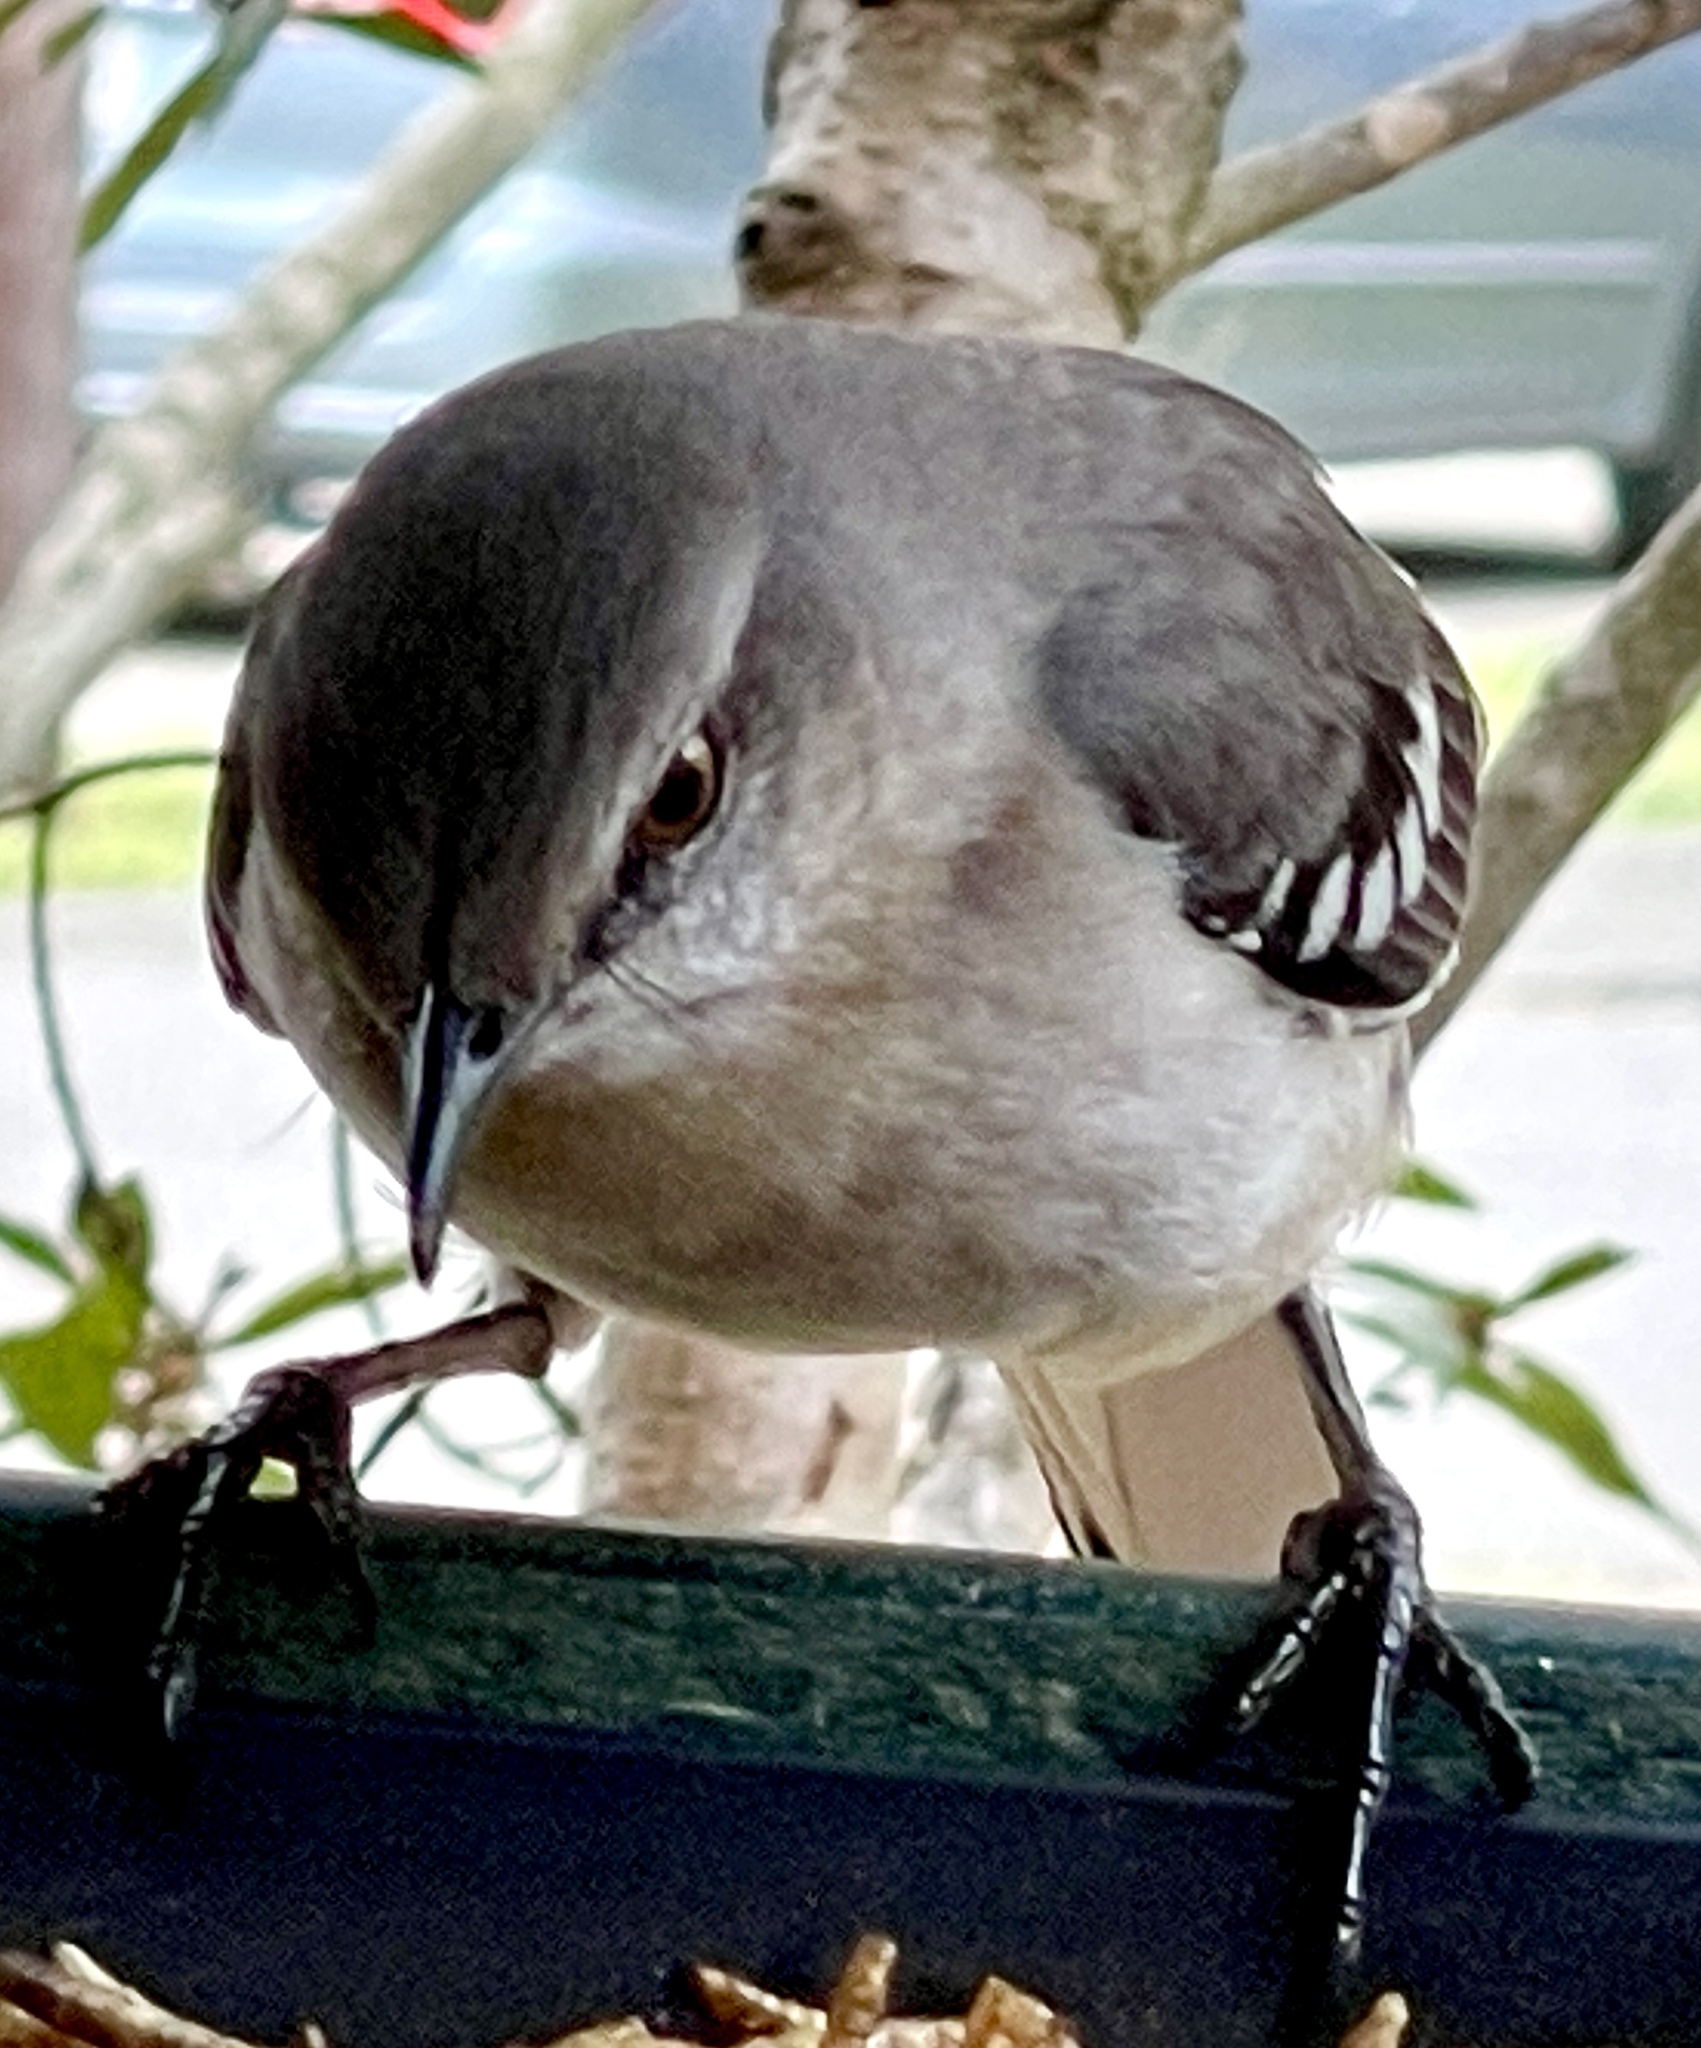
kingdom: Animalia
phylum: Chordata
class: Aves
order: Passeriformes
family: Mimidae
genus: Mimus
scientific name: Mimus polyglottos
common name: Northern mockingbird
